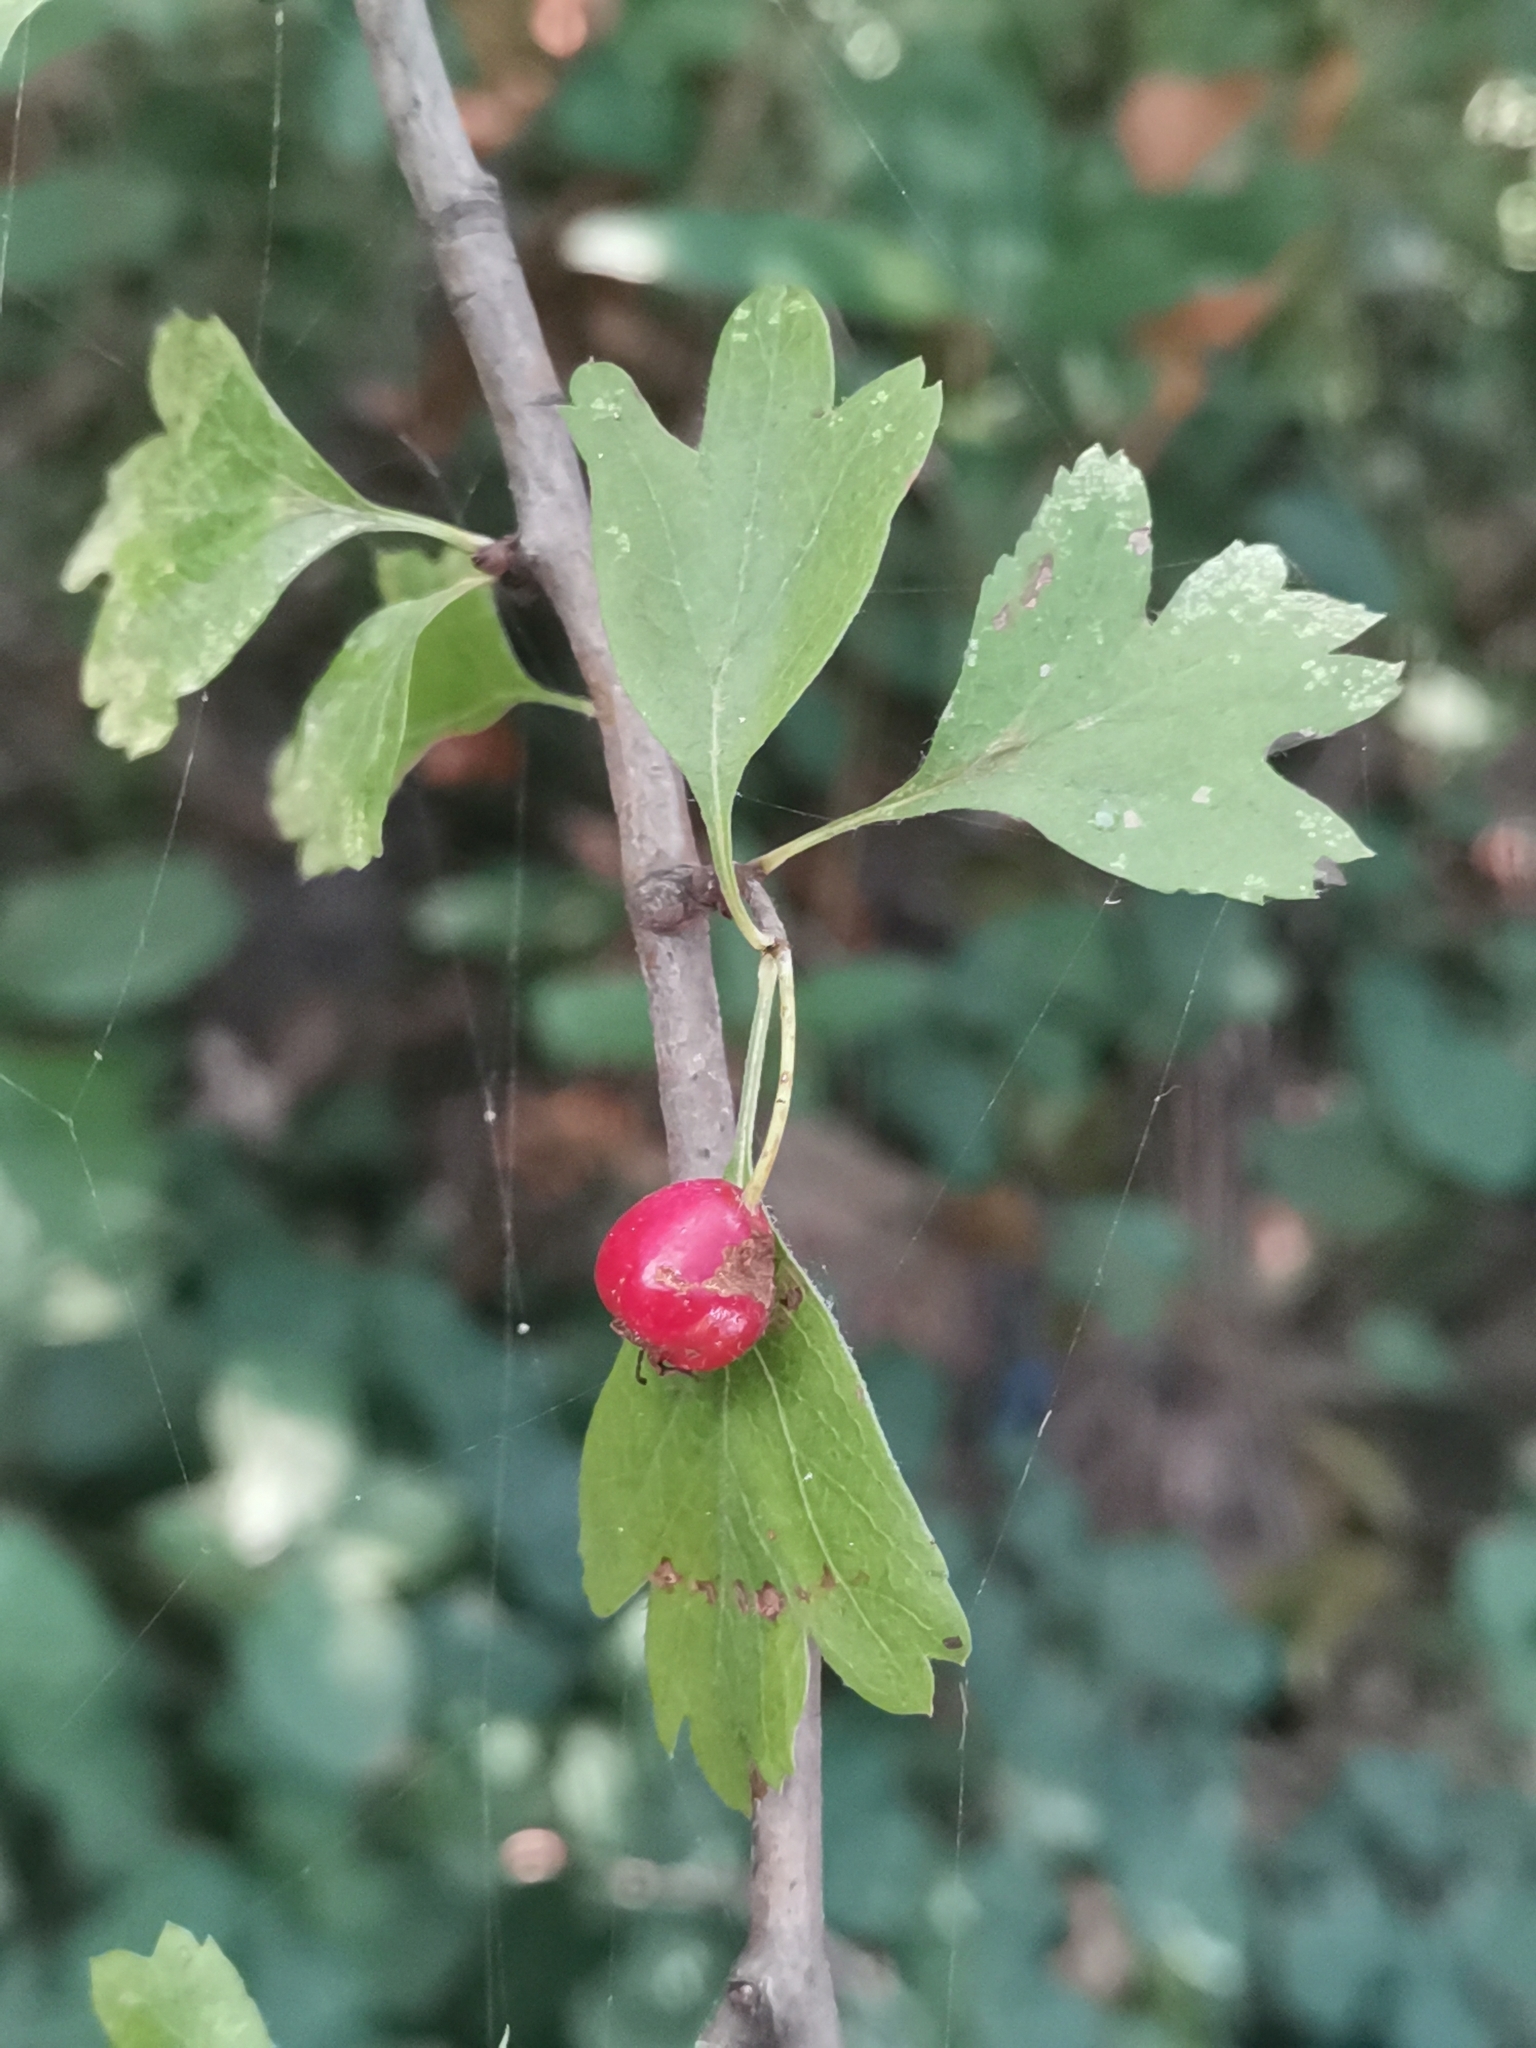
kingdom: Plantae
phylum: Tracheophyta
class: Magnoliopsida
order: Rosales
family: Rosaceae
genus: Crataegus
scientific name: Crataegus monogyna
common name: Hawthorn
